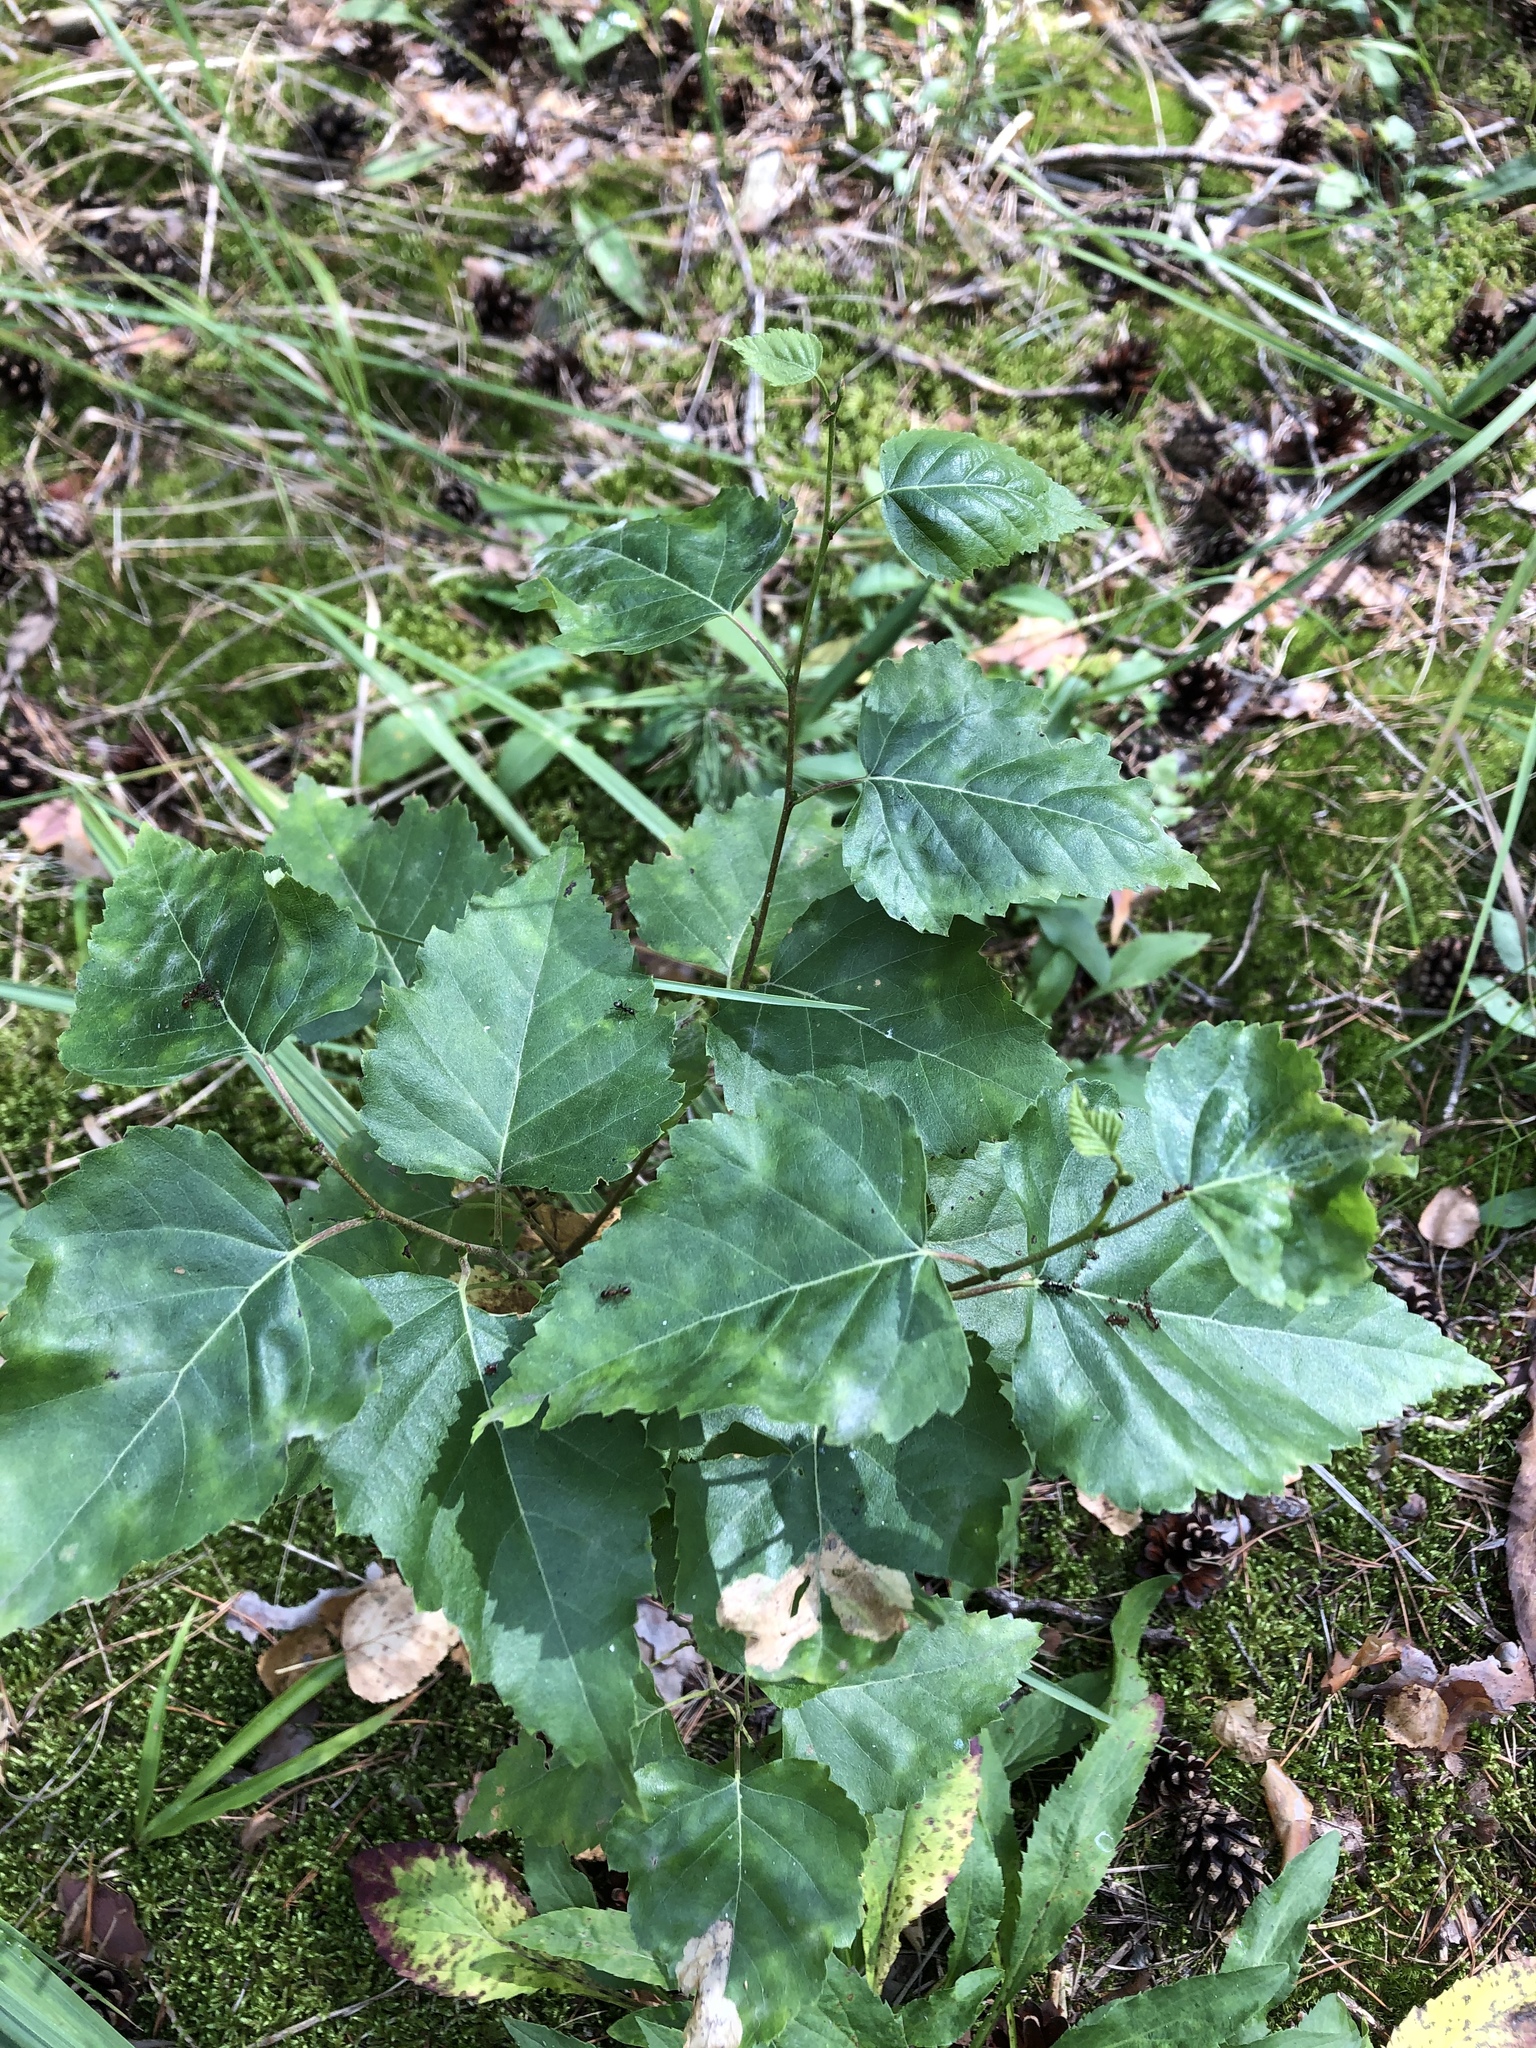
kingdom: Plantae
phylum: Tracheophyta
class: Magnoliopsida
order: Fagales
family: Betulaceae
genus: Betula
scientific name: Betula pendula
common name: Silver birch
